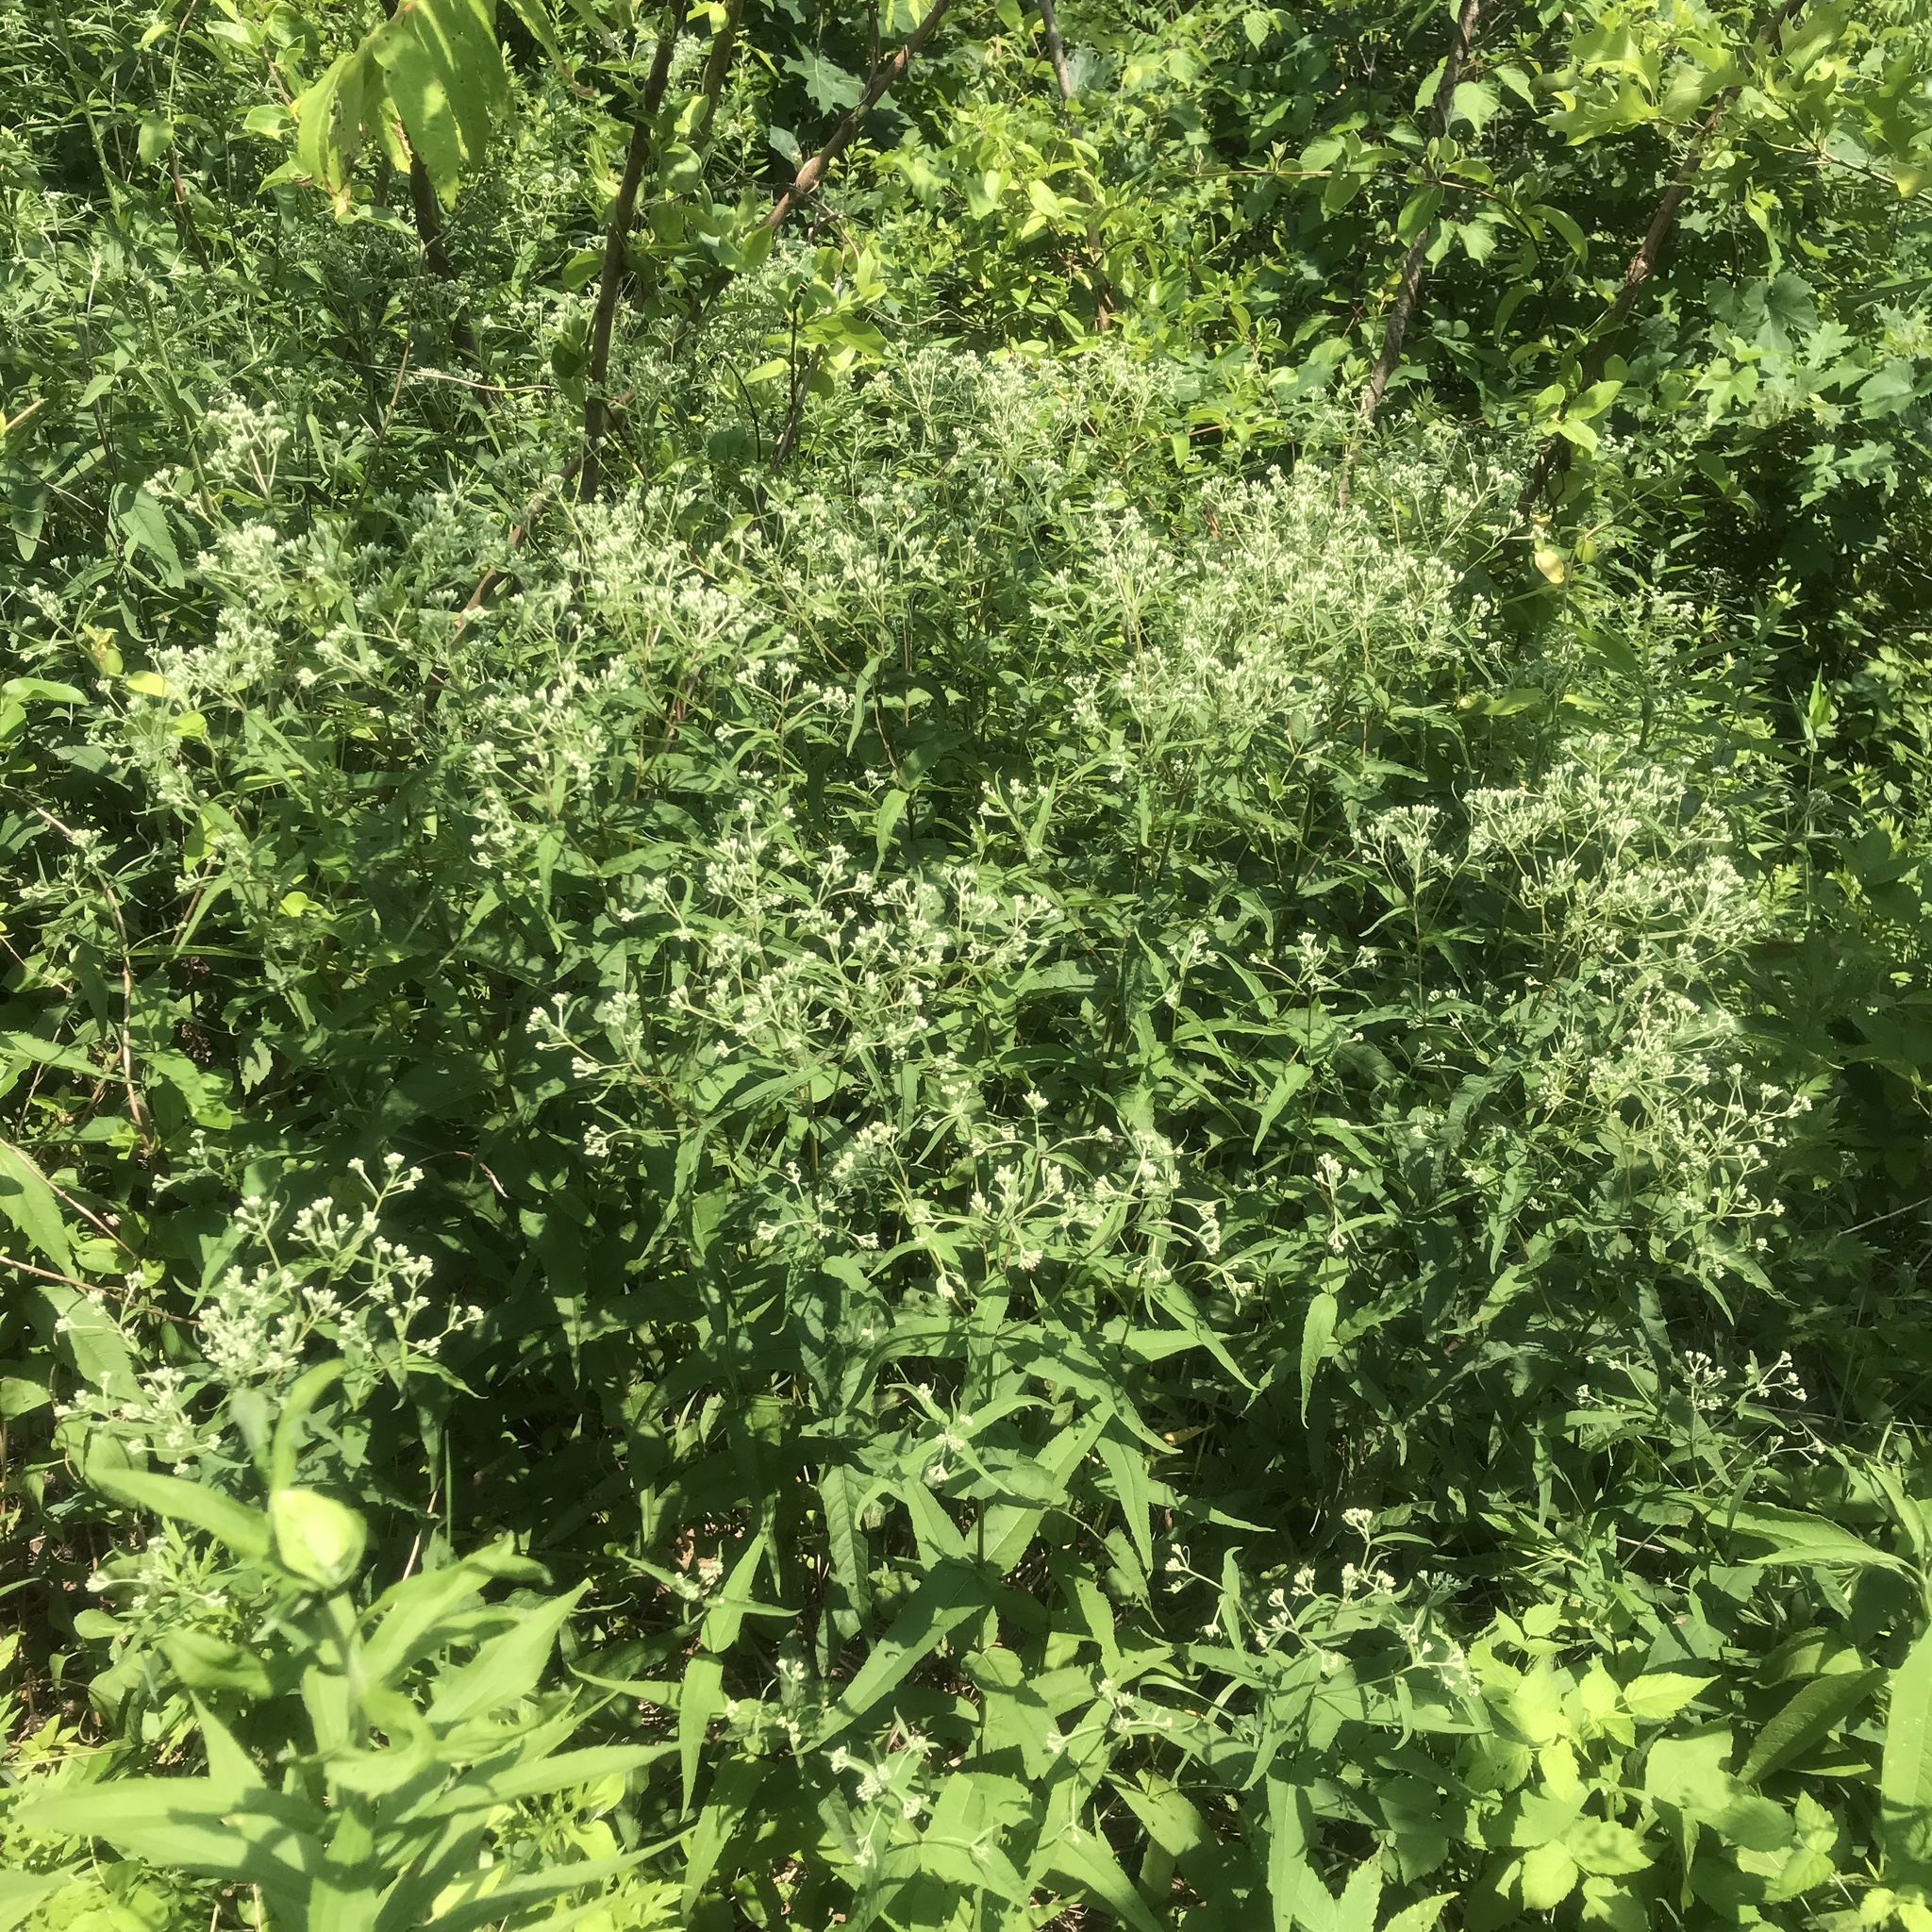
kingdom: Plantae
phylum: Tracheophyta
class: Magnoliopsida
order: Asterales
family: Asteraceae
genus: Eupatorium
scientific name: Eupatorium sessilifolium
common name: Upland boneset
